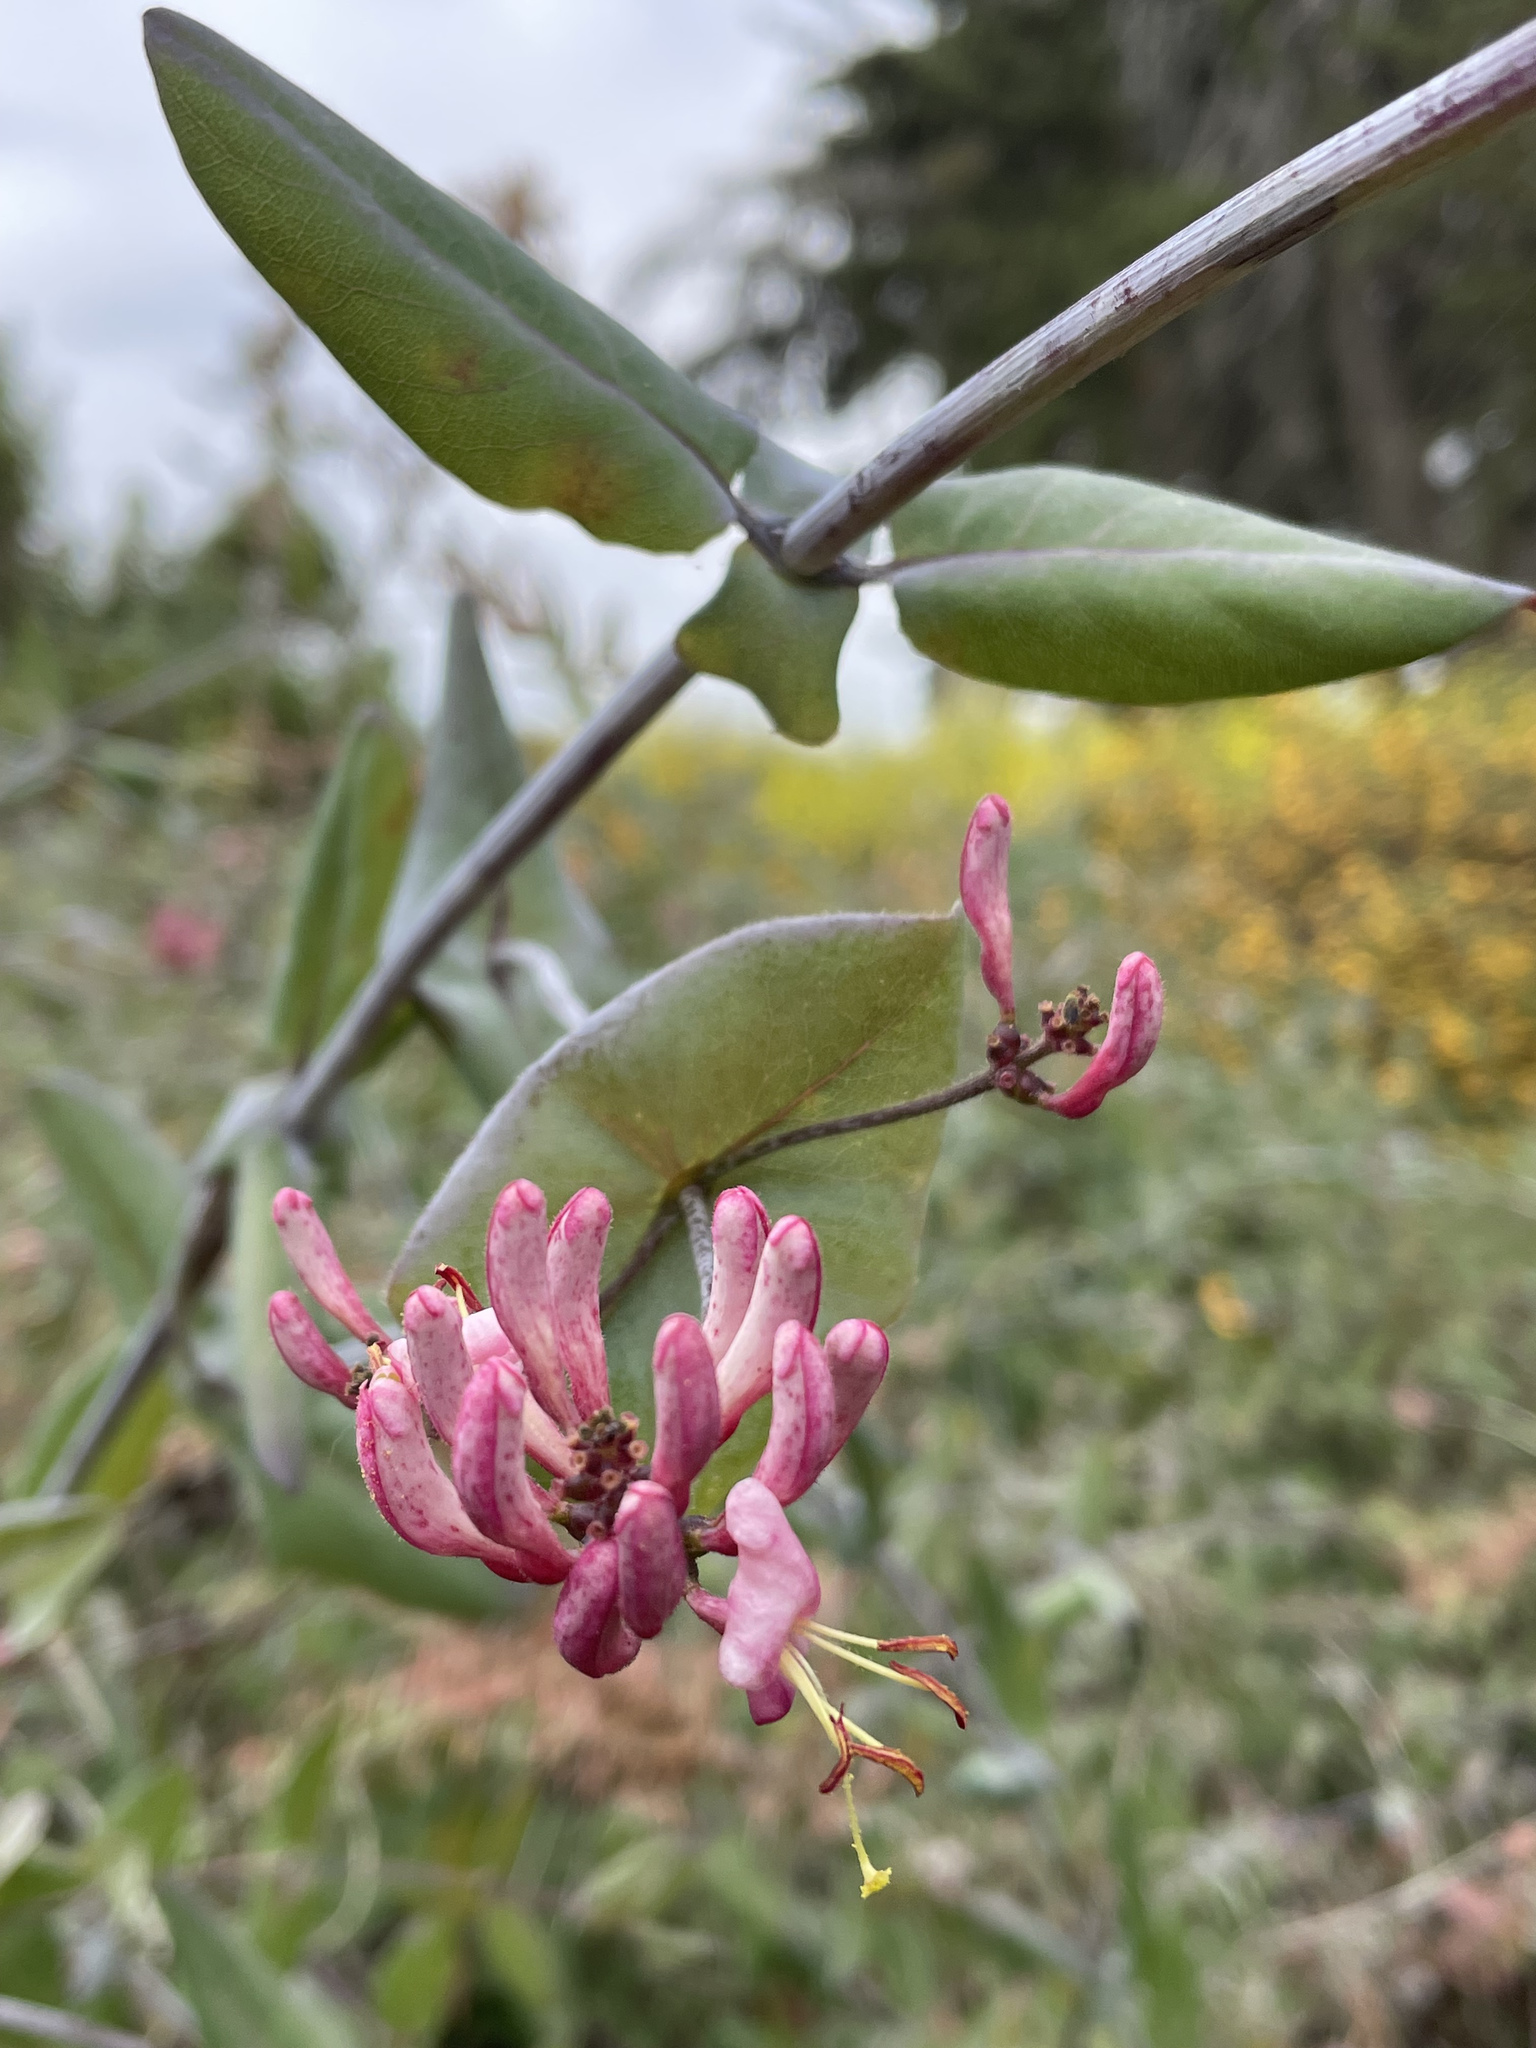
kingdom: Plantae
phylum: Tracheophyta
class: Magnoliopsida
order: Dipsacales
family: Caprifoliaceae
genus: Lonicera
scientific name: Lonicera hispidula
